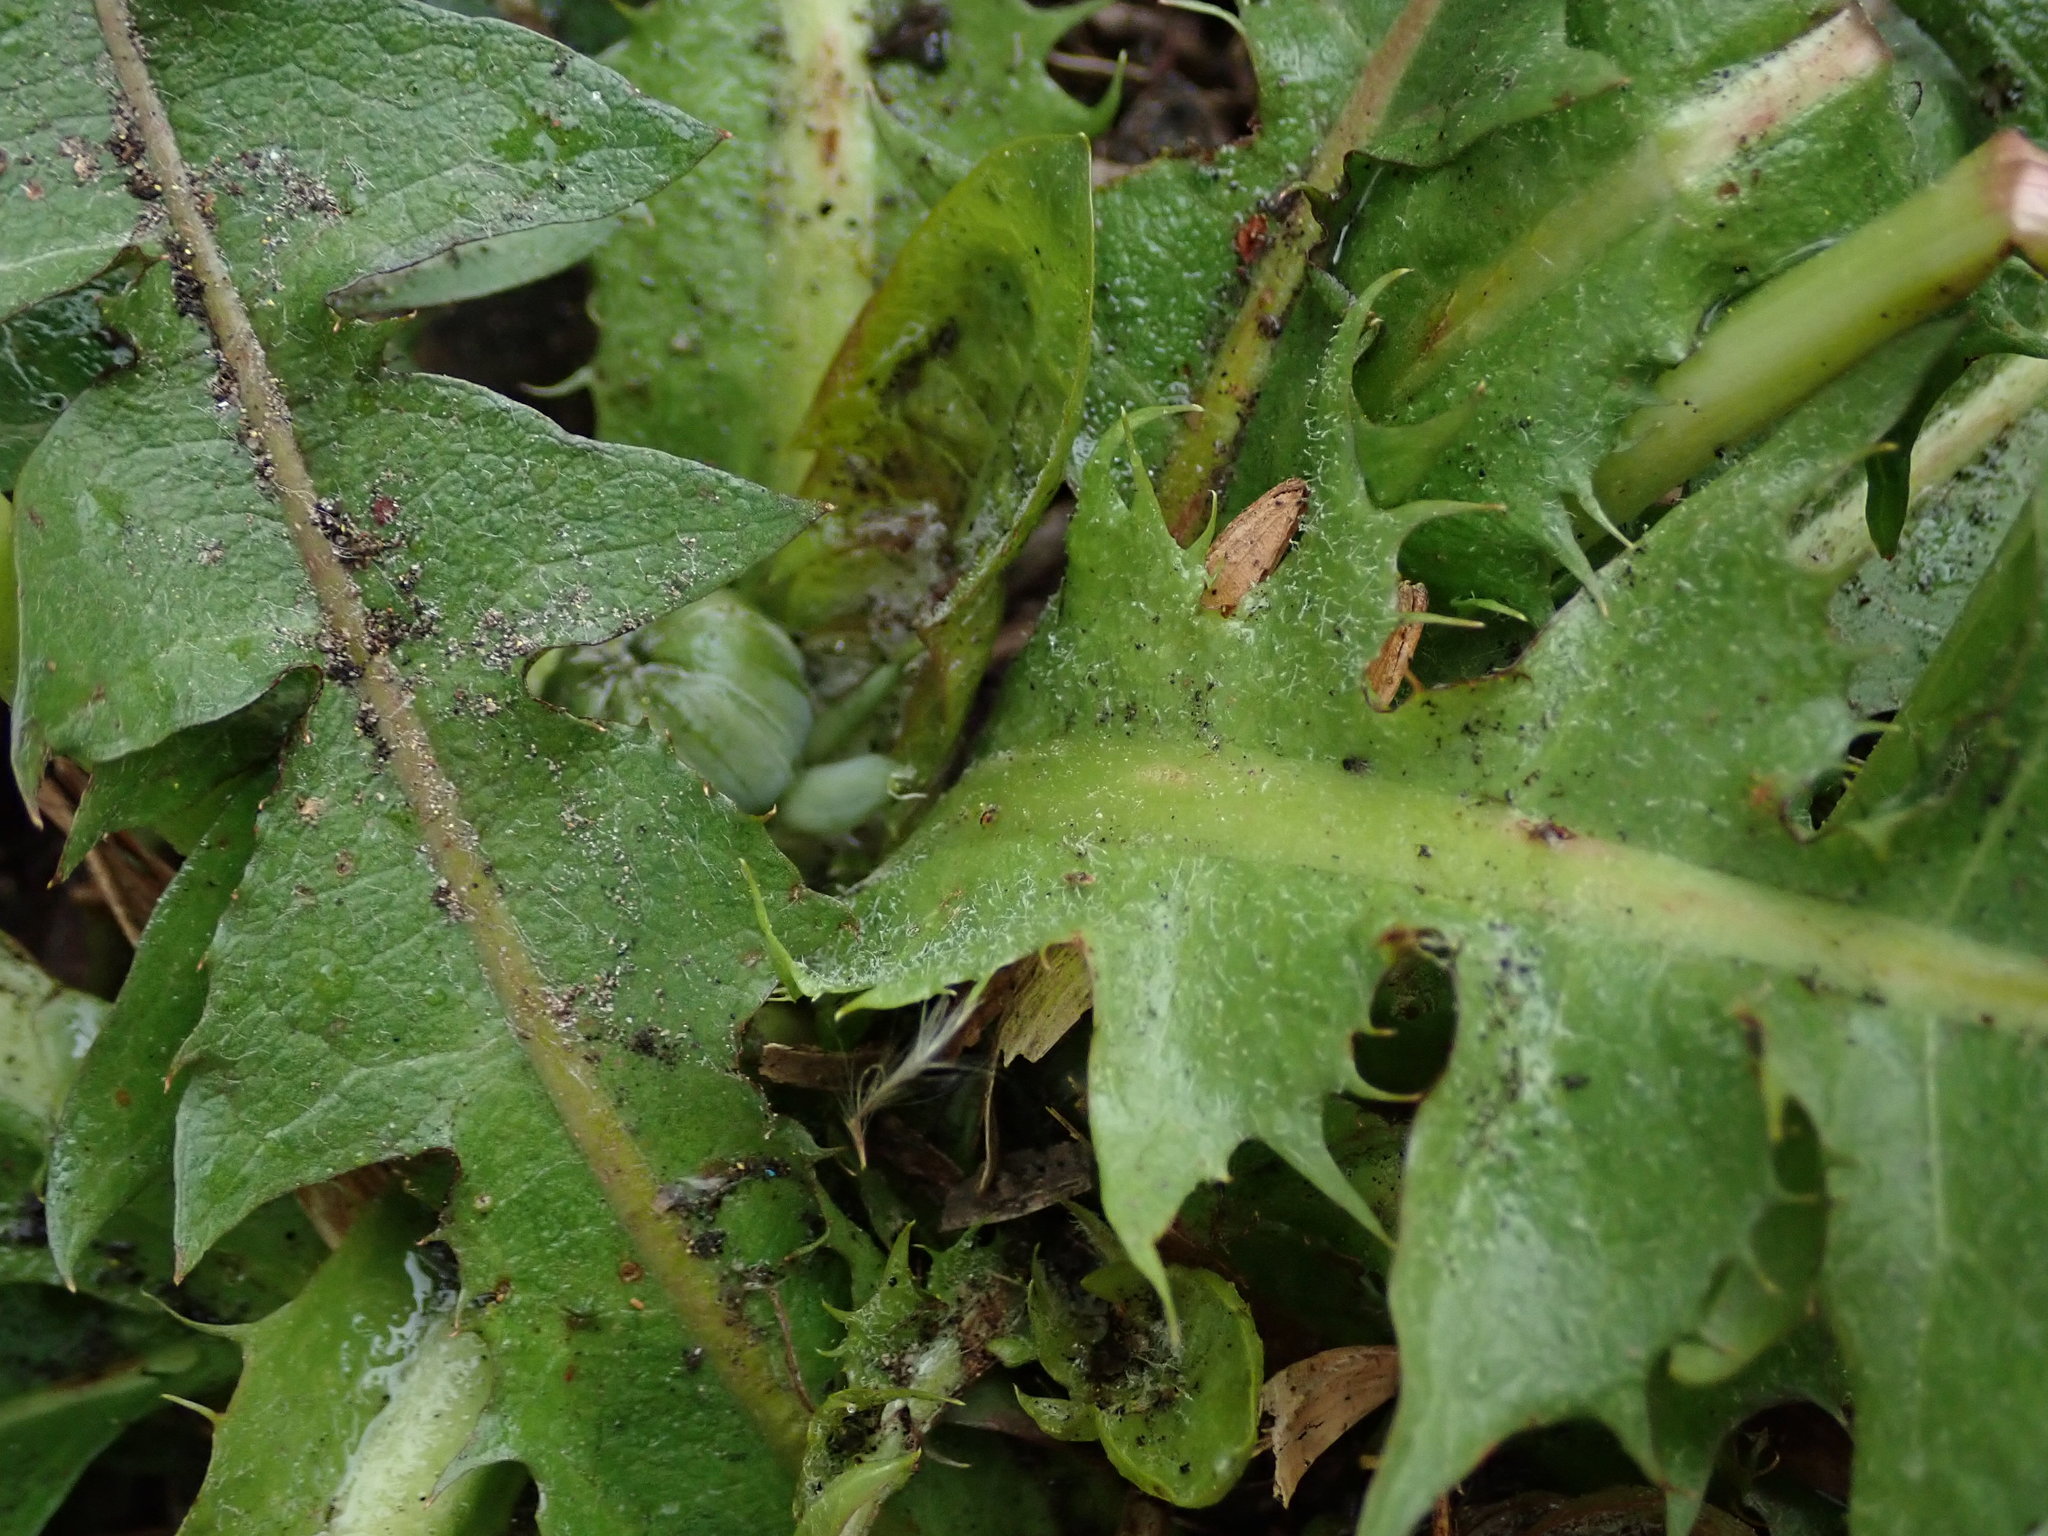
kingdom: Plantae
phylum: Tracheophyta
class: Magnoliopsida
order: Asterales
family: Asteraceae
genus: Taraxacum
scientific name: Taraxacum
